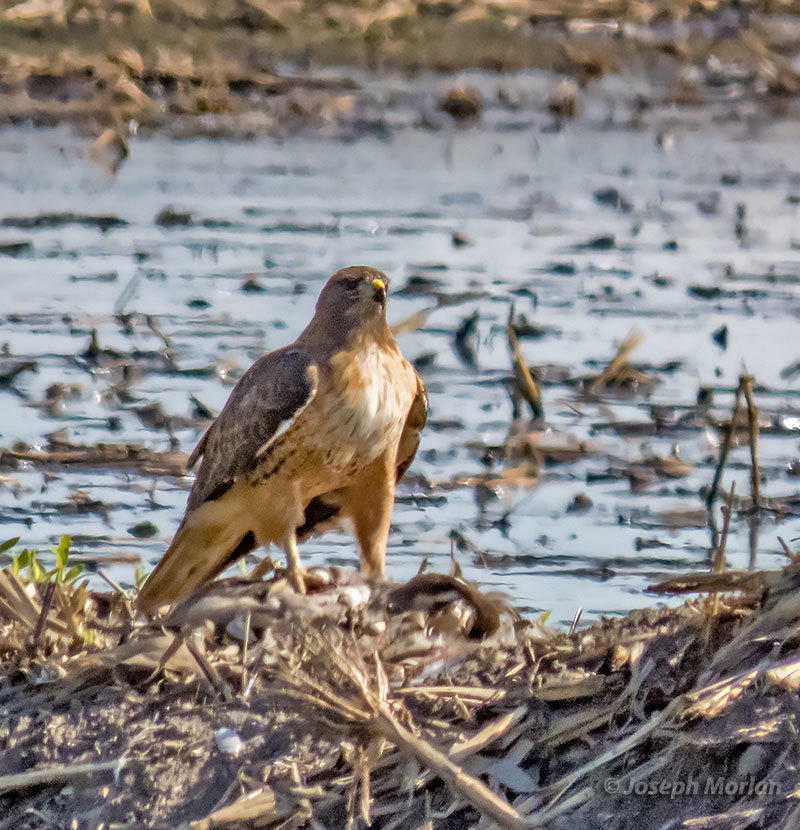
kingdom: Animalia
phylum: Chordata
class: Aves
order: Accipitriformes
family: Accipitridae
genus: Buteo
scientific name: Buteo jamaicensis
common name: Red-tailed hawk
